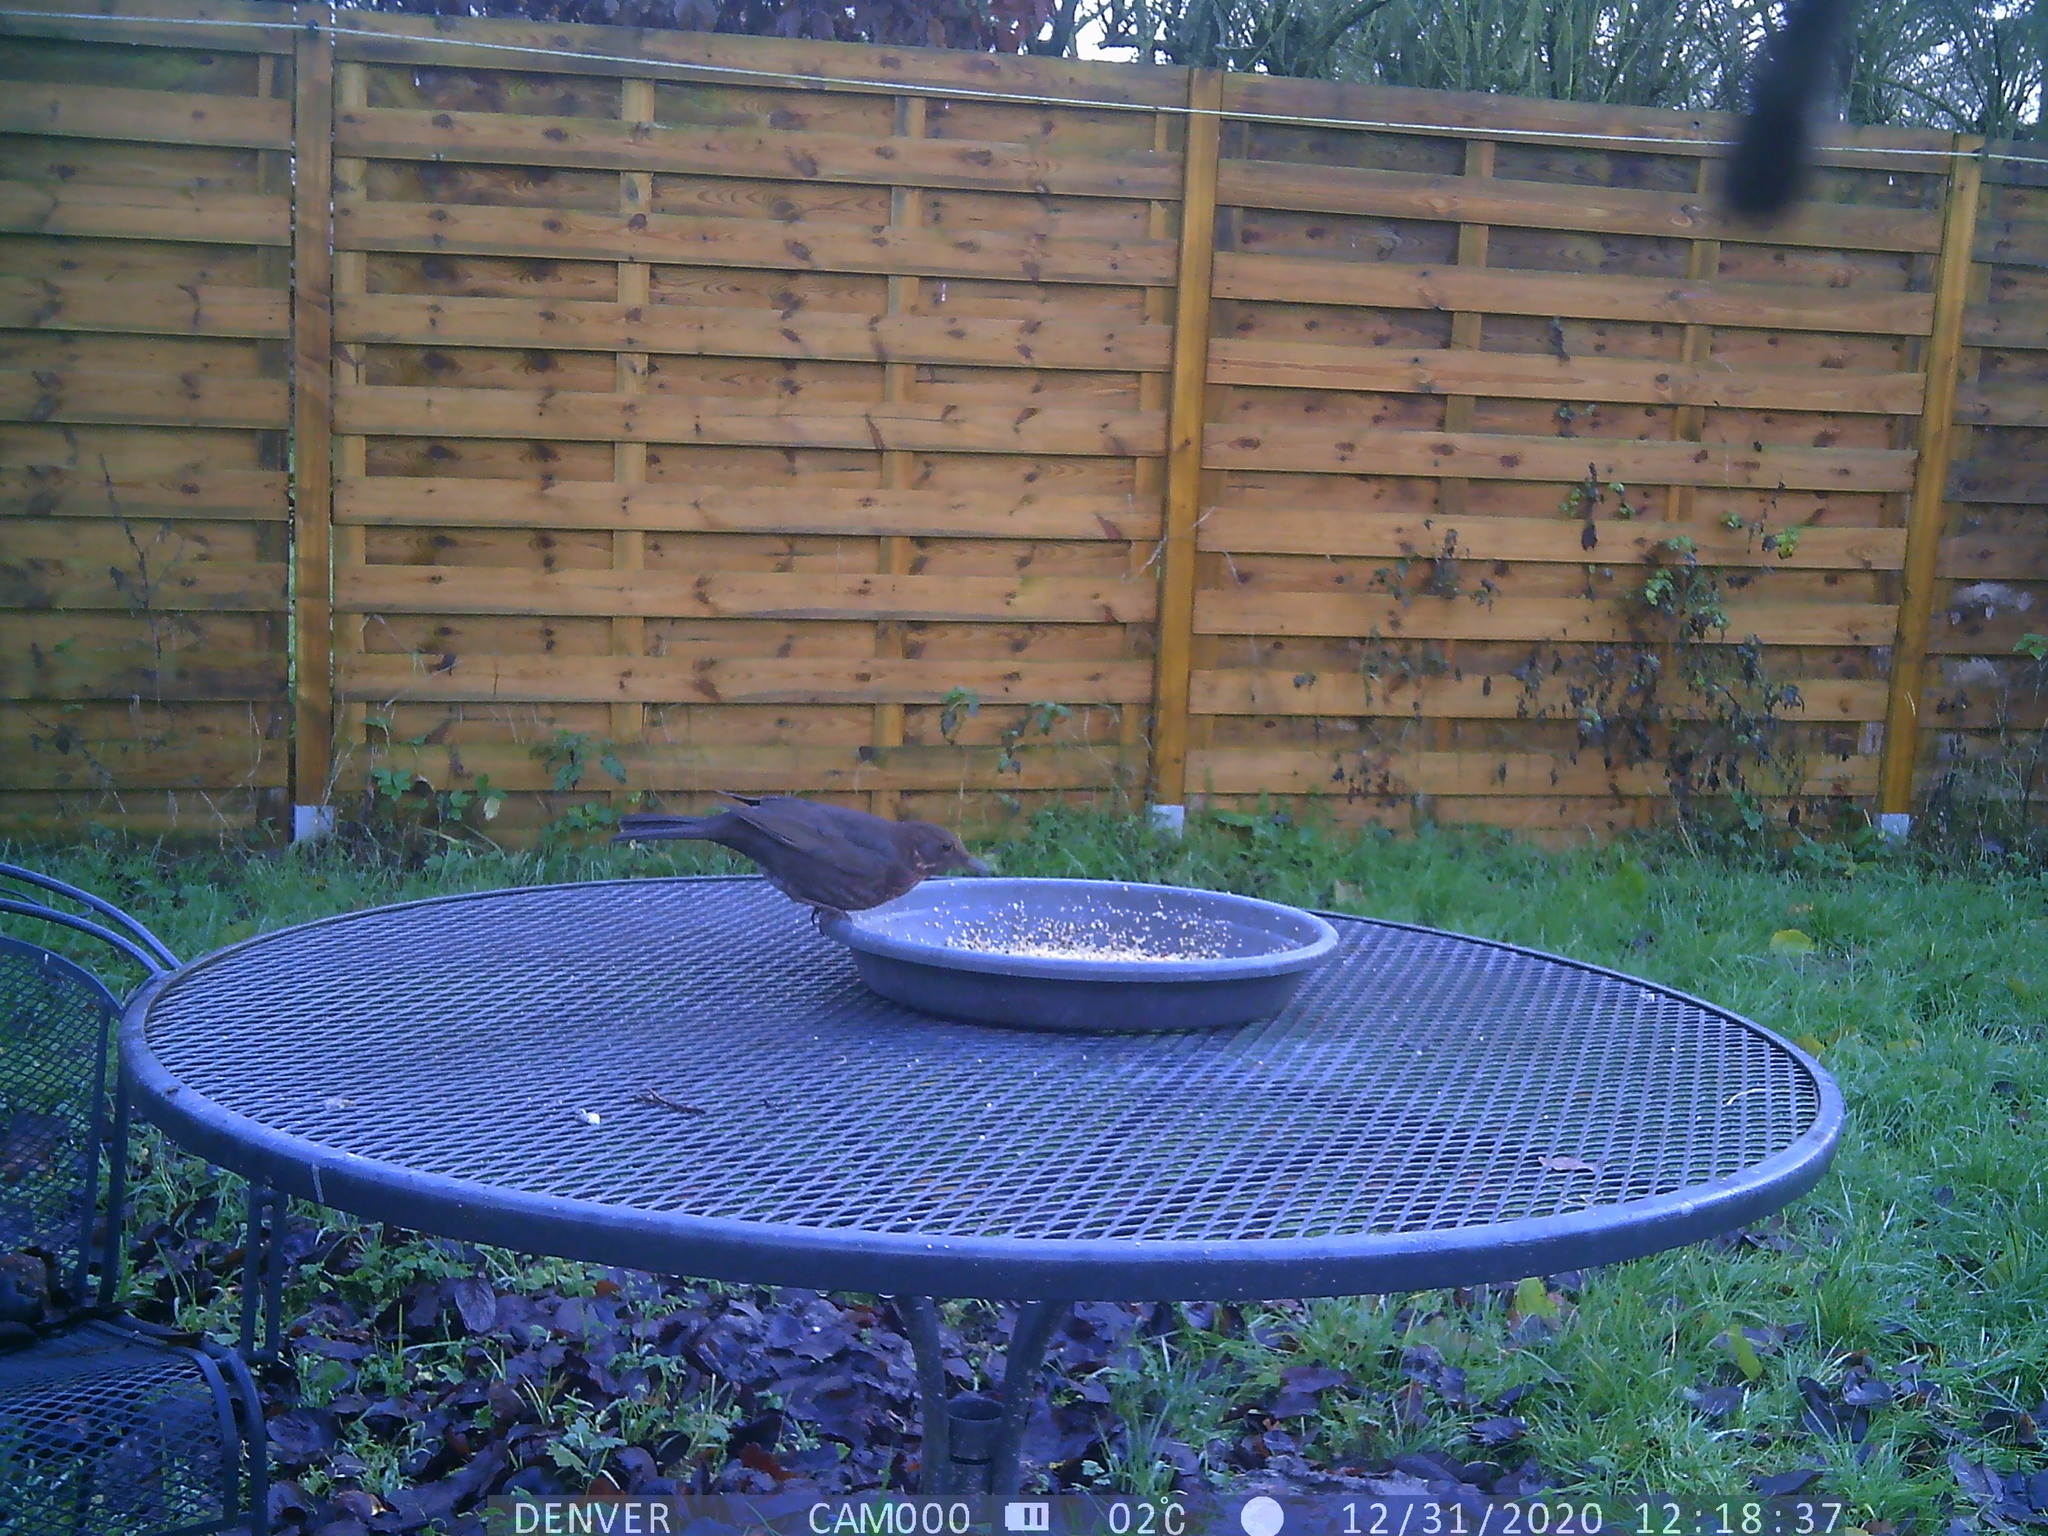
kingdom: Animalia
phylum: Chordata
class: Aves
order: Passeriformes
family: Turdidae
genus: Turdus
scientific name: Turdus merula
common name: Common blackbird
